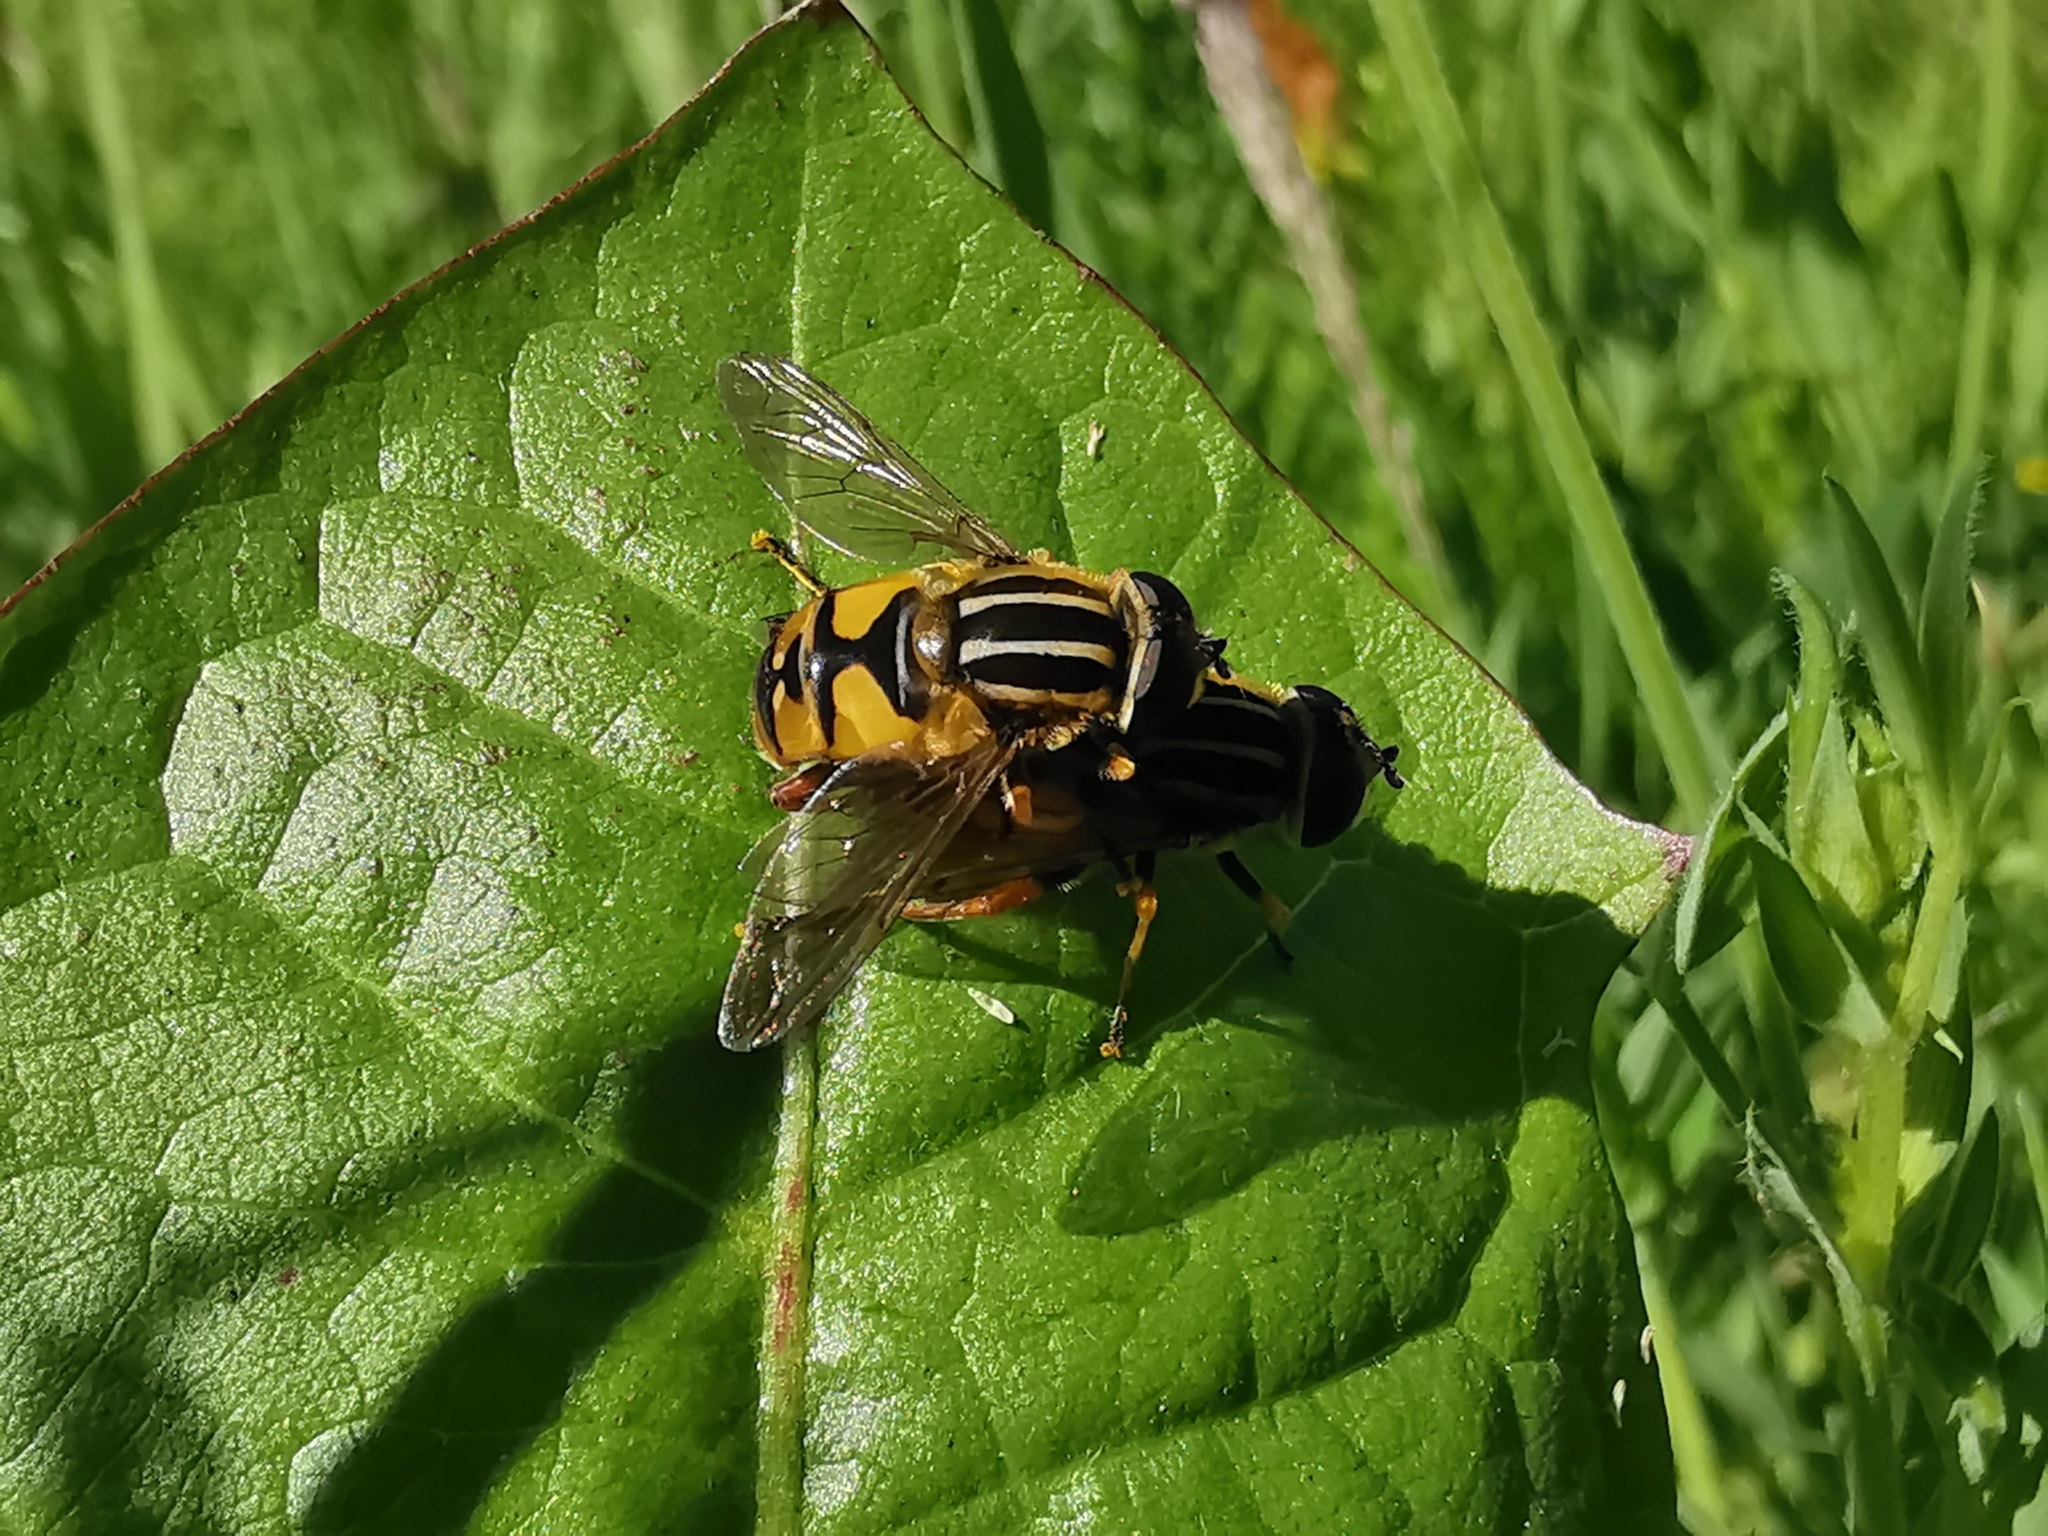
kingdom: Animalia
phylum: Arthropoda
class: Insecta
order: Diptera
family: Syrphidae
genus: Helophilus
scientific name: Helophilus pendulus
